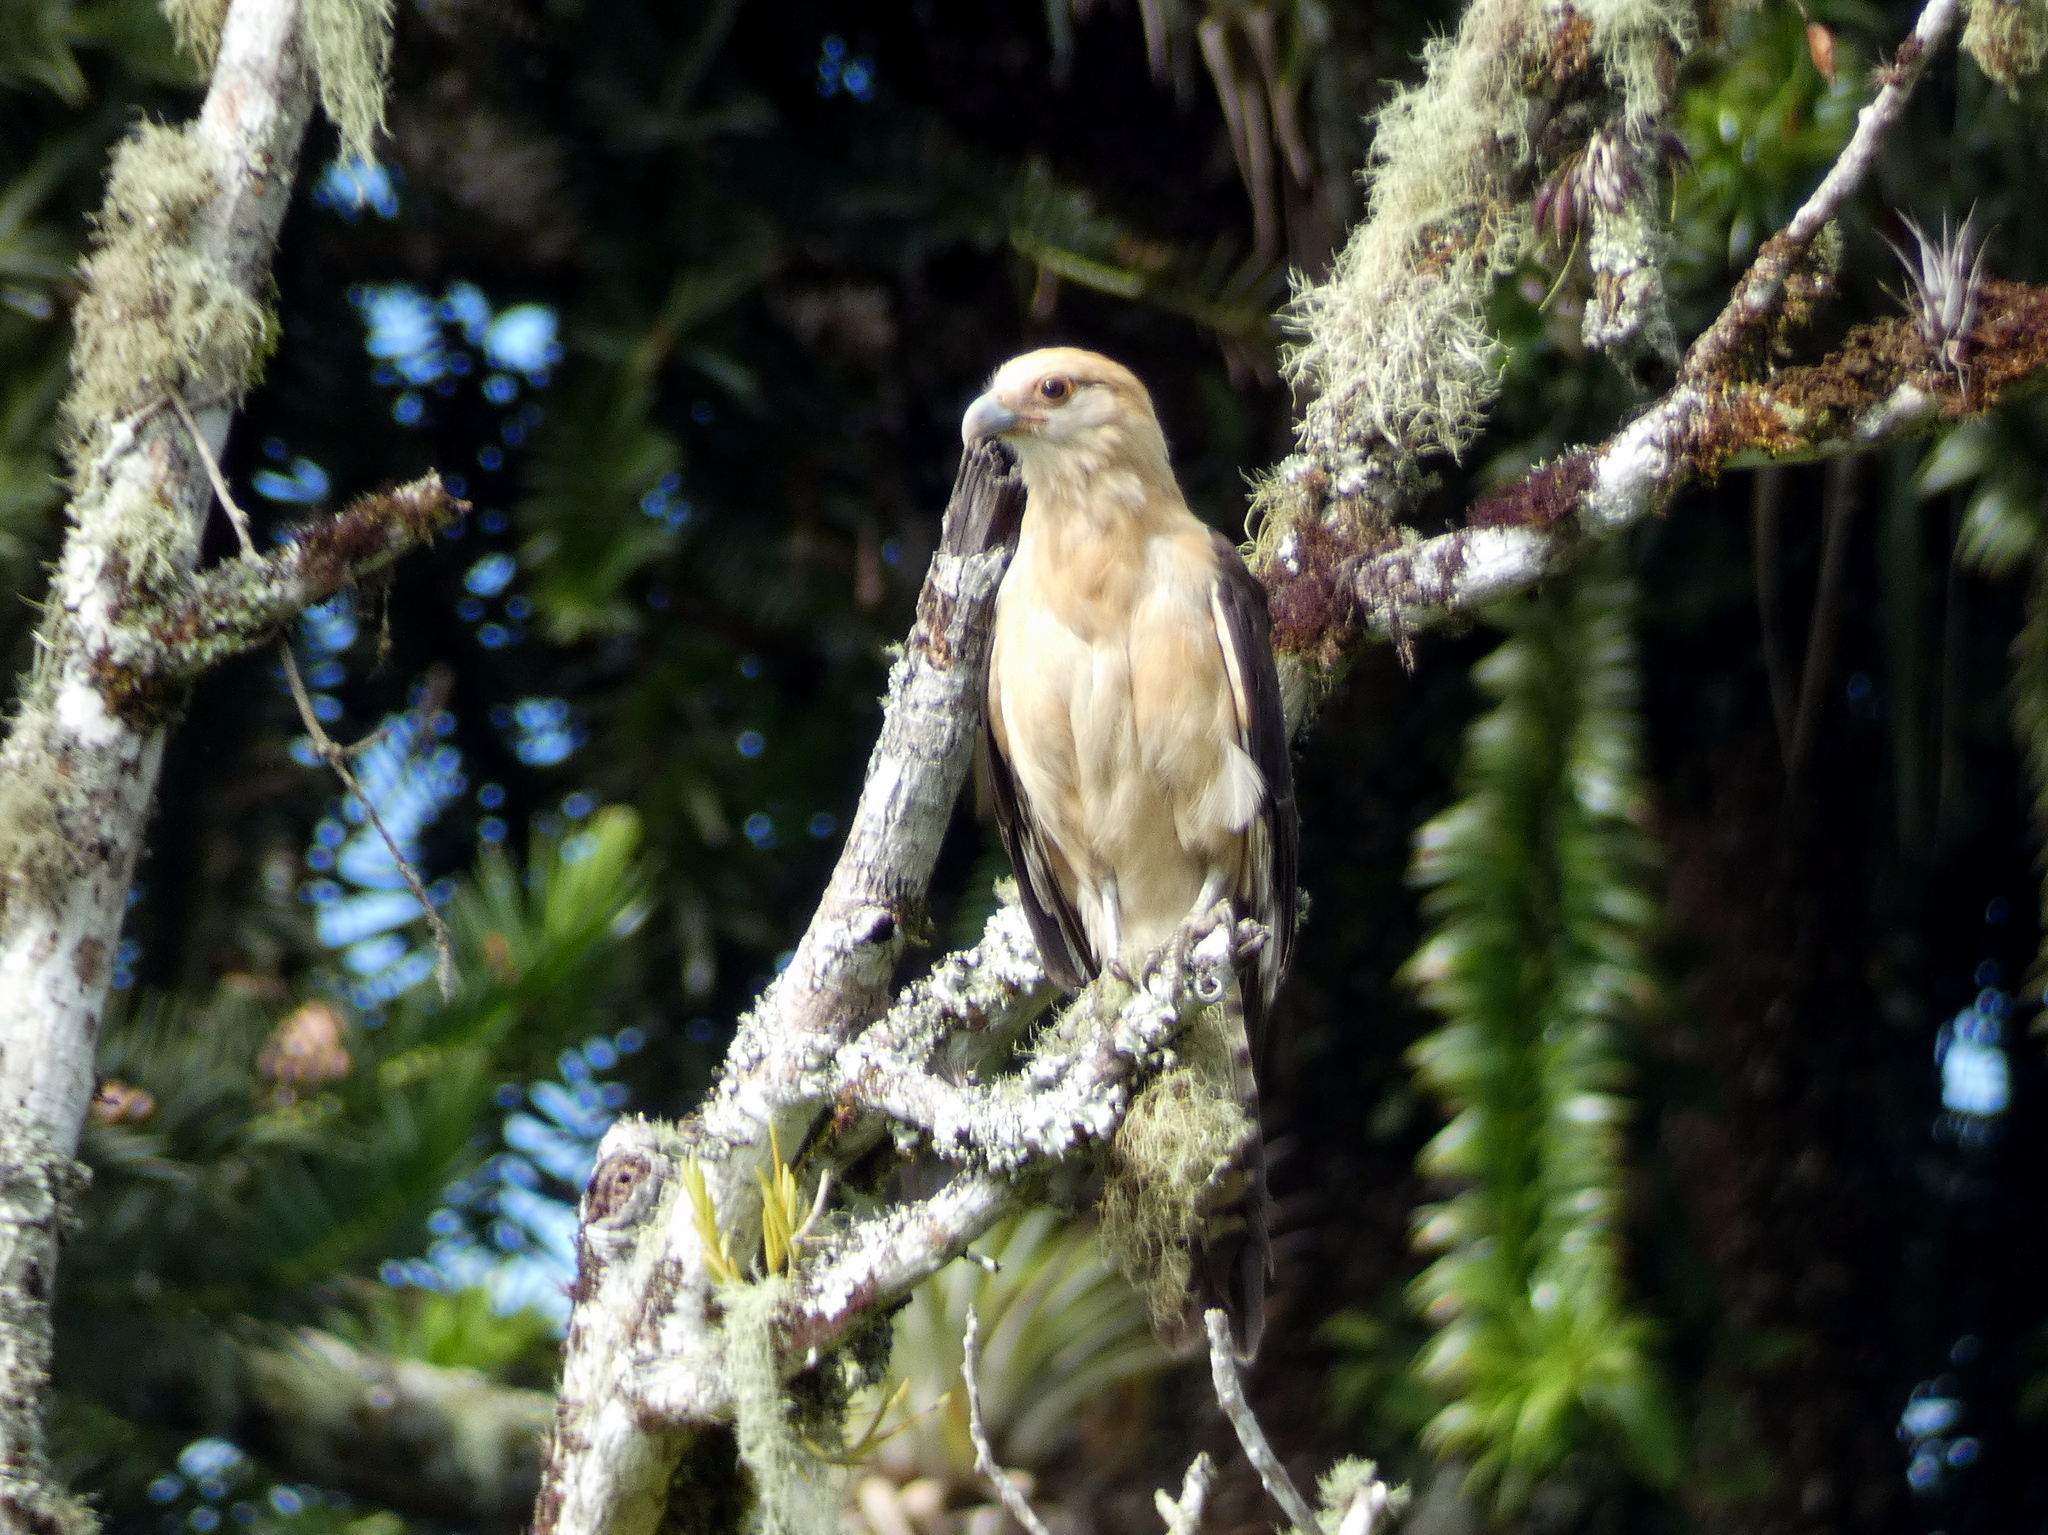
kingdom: Animalia
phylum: Chordata
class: Aves
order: Falconiformes
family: Falconidae
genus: Daptrius
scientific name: Daptrius
